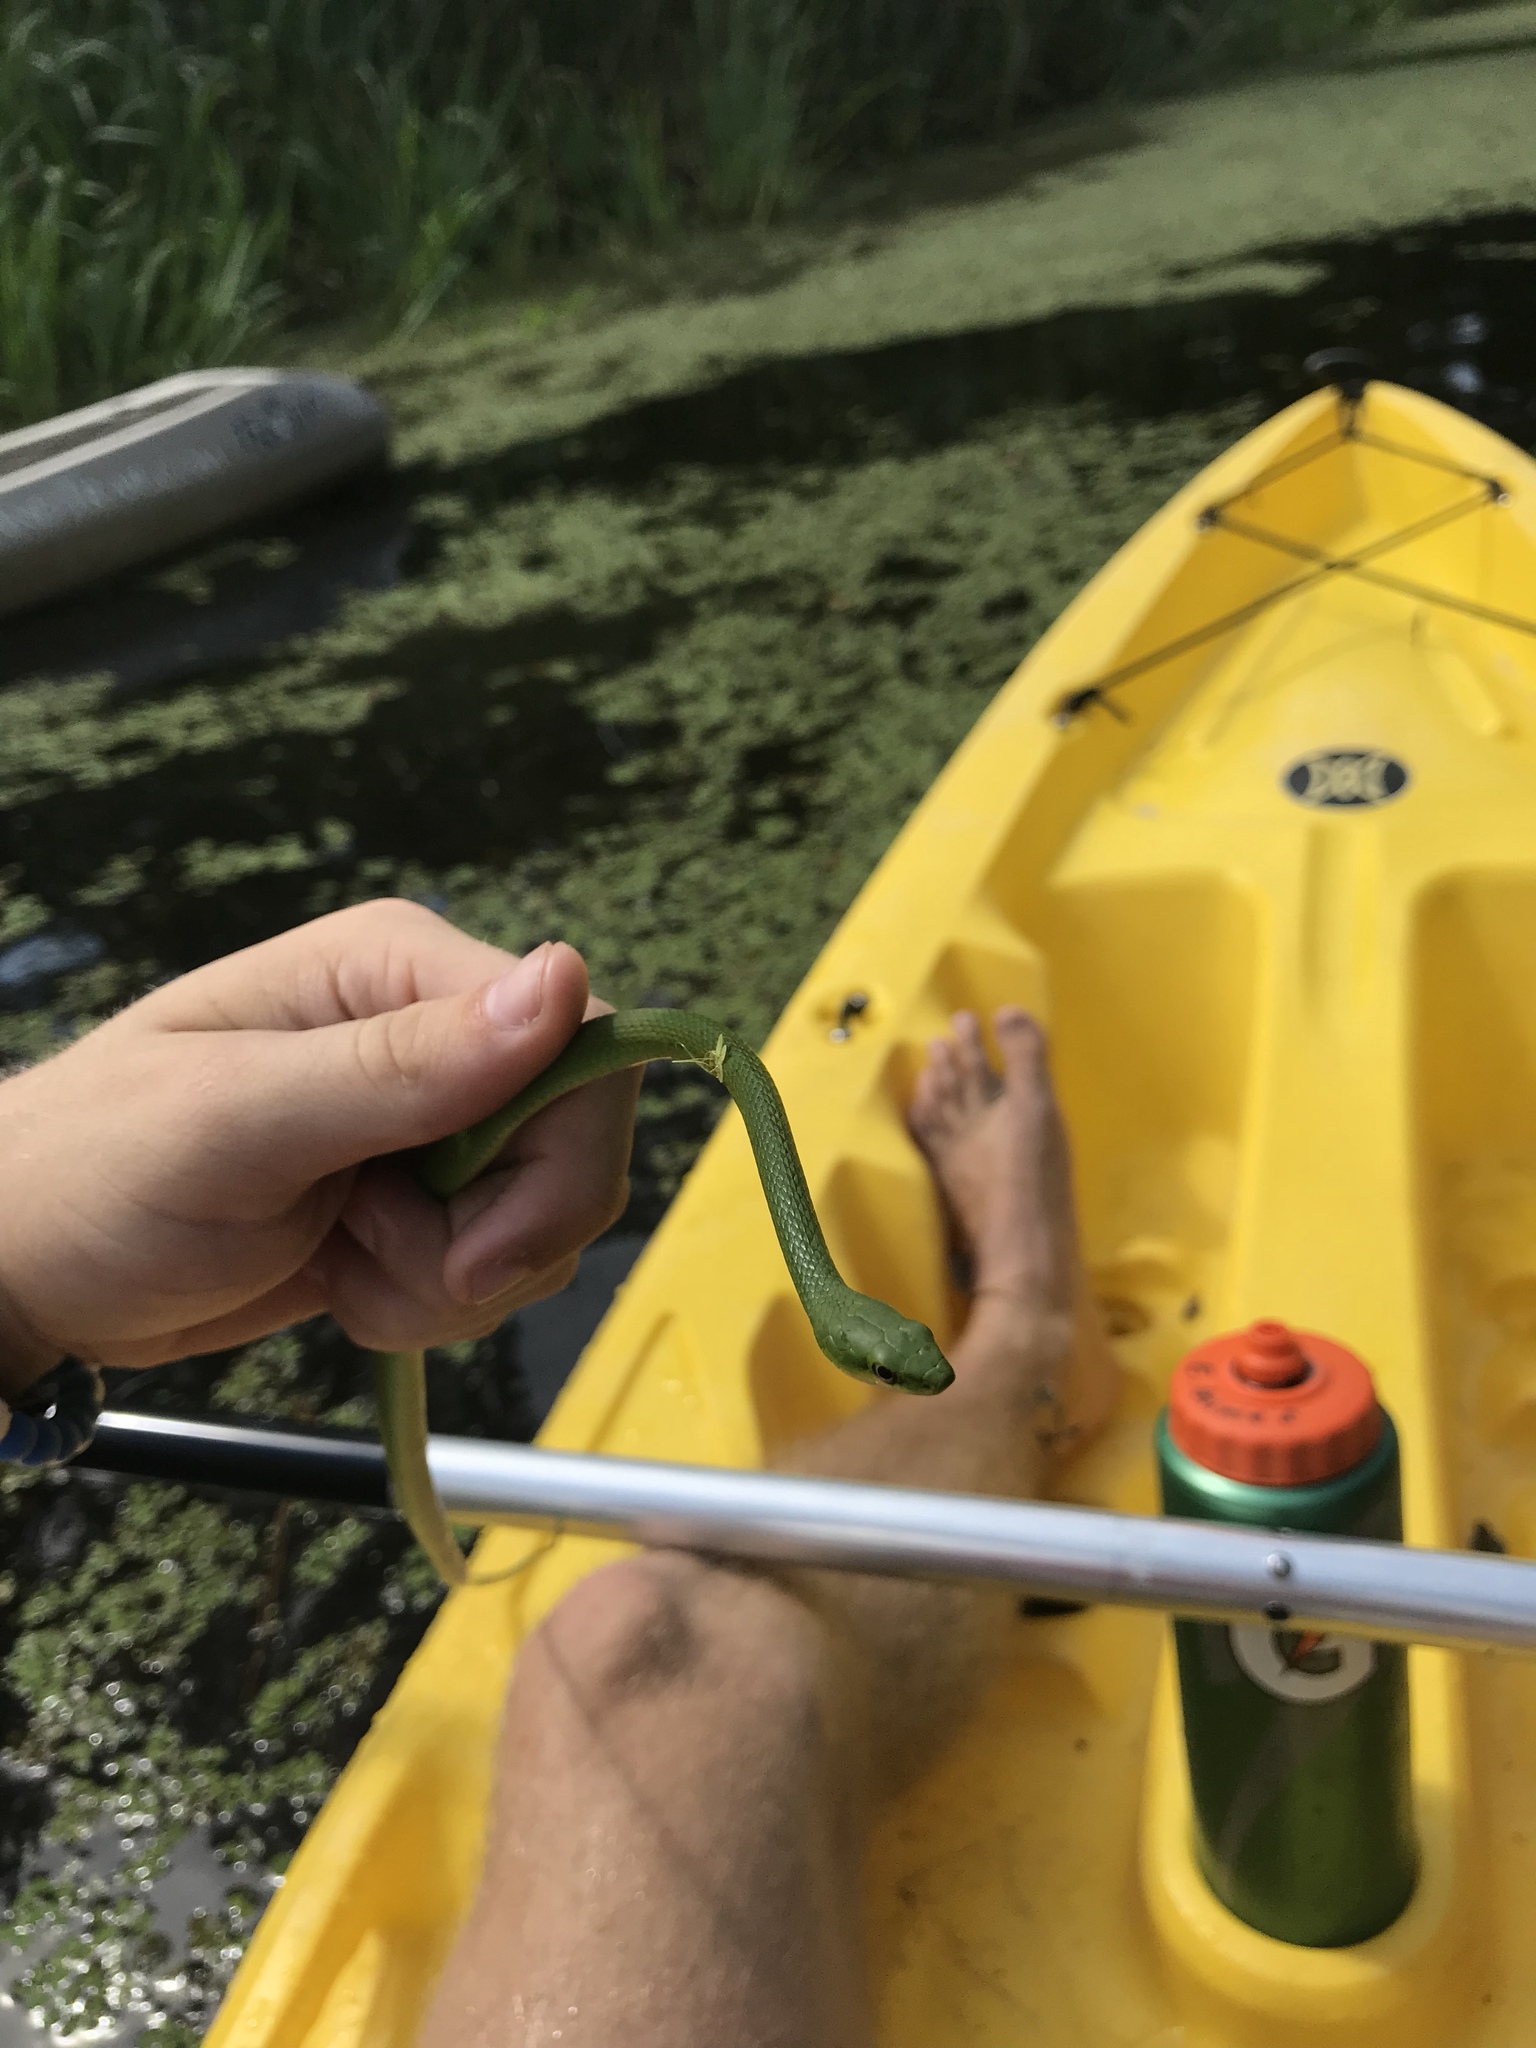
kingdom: Animalia
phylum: Chordata
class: Squamata
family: Colubridae
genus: Opheodrys
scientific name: Opheodrys aestivus
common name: Rough greensnake
